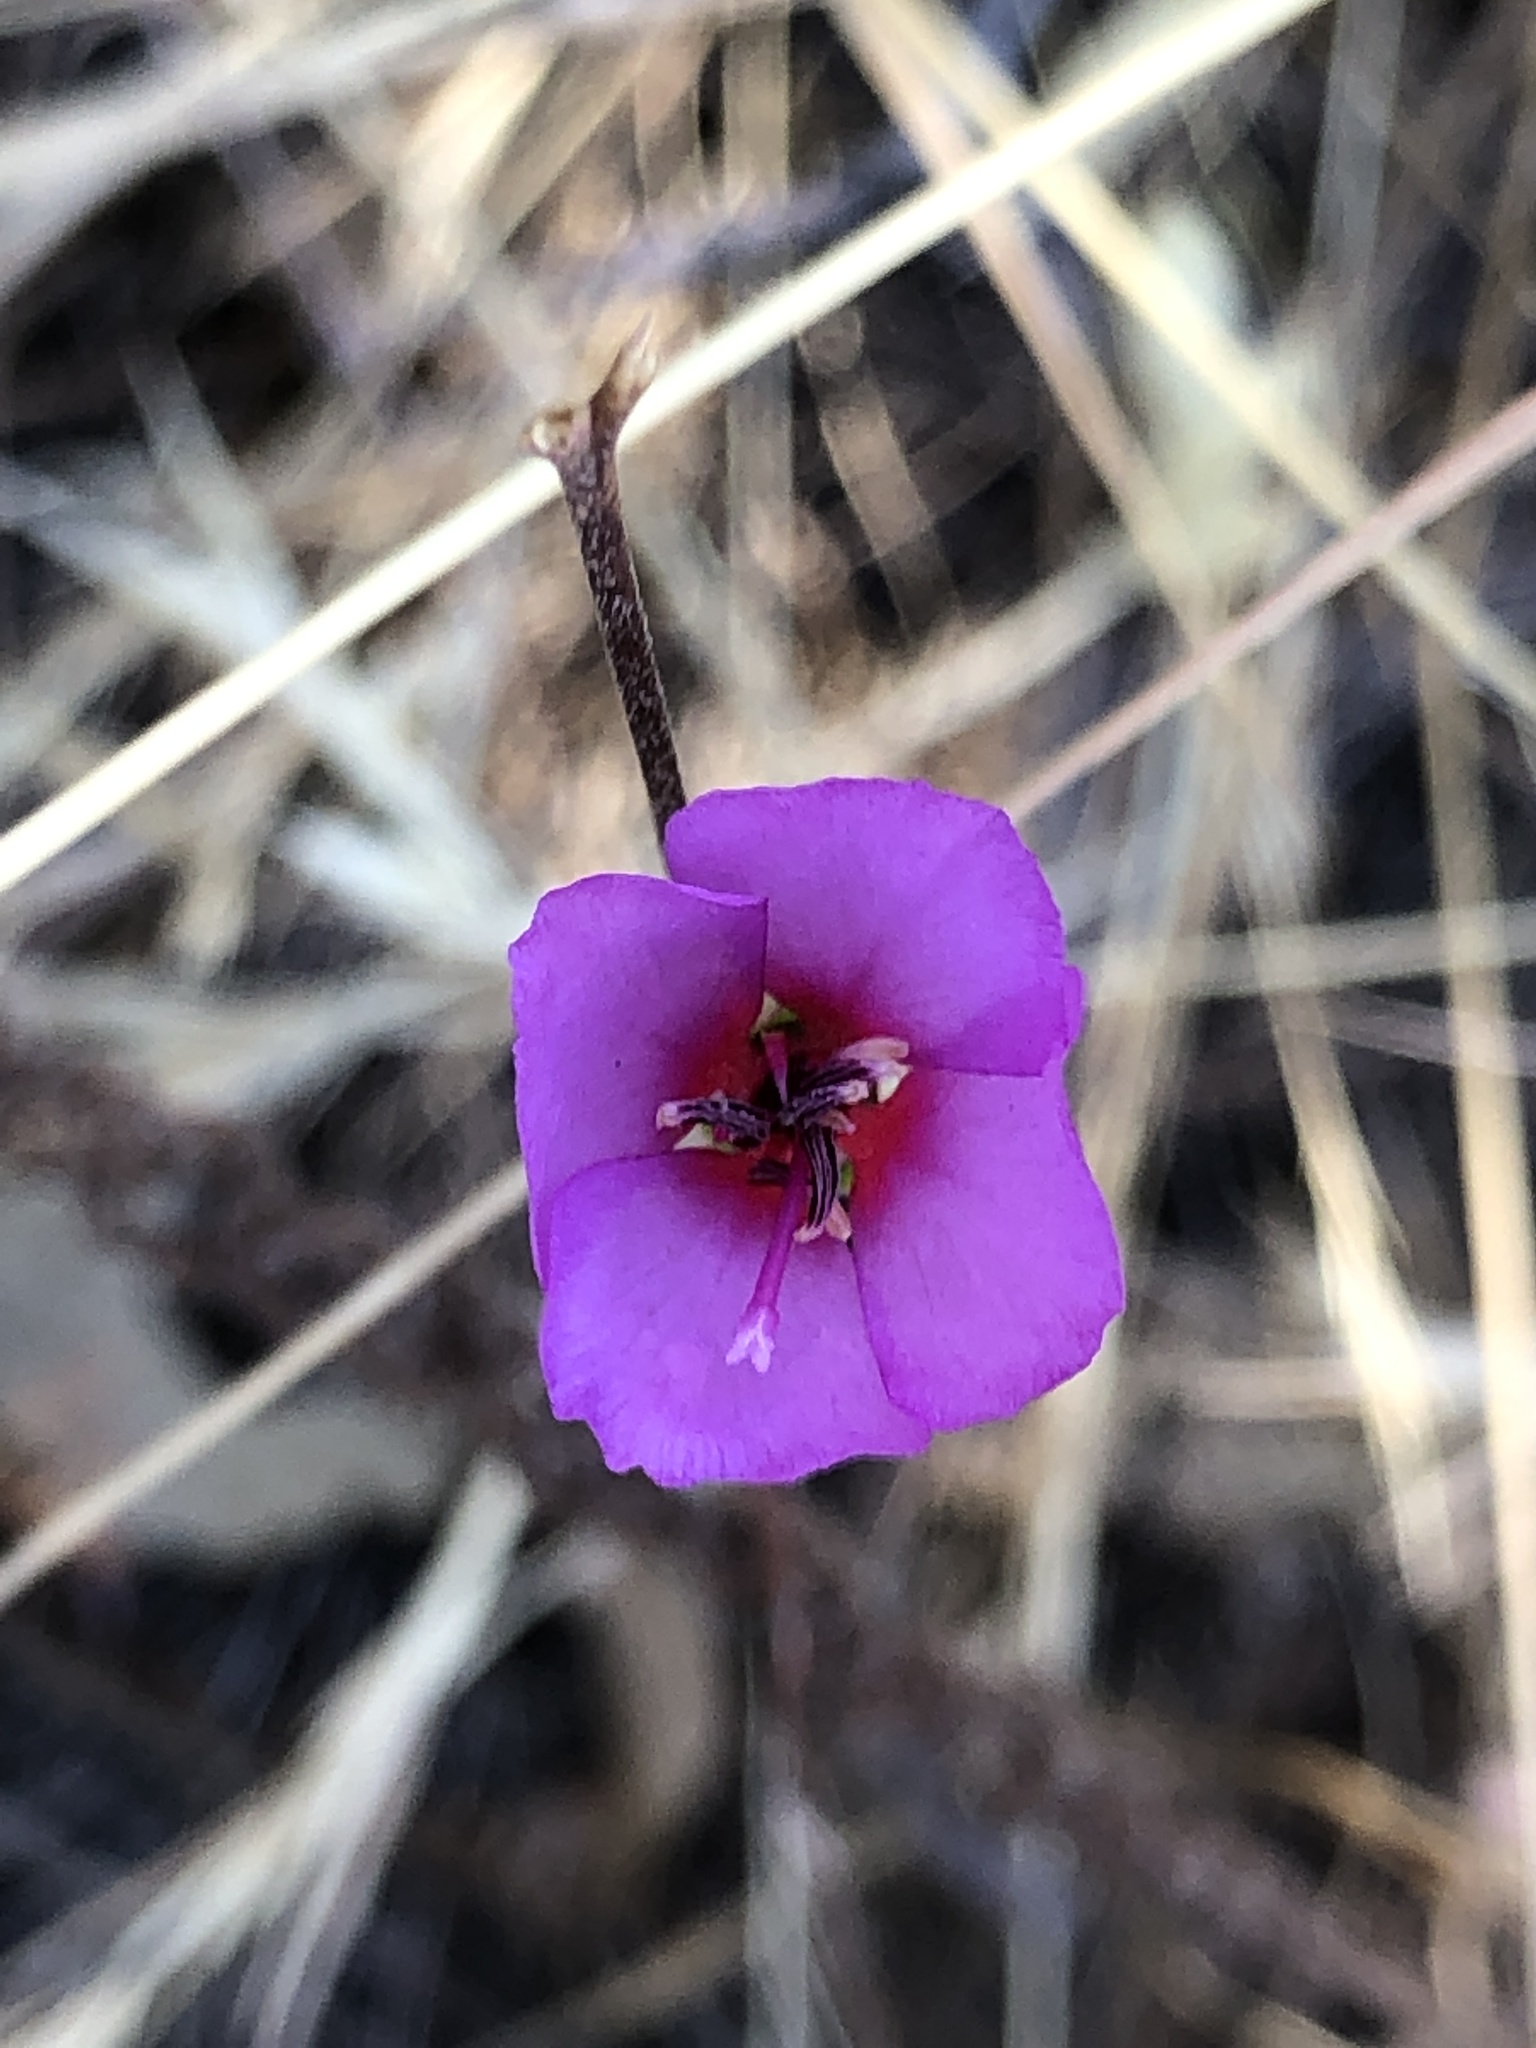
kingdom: Plantae
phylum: Tracheophyta
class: Magnoliopsida
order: Myrtales
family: Onagraceae
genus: Clarkia
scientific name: Clarkia rubicunda
